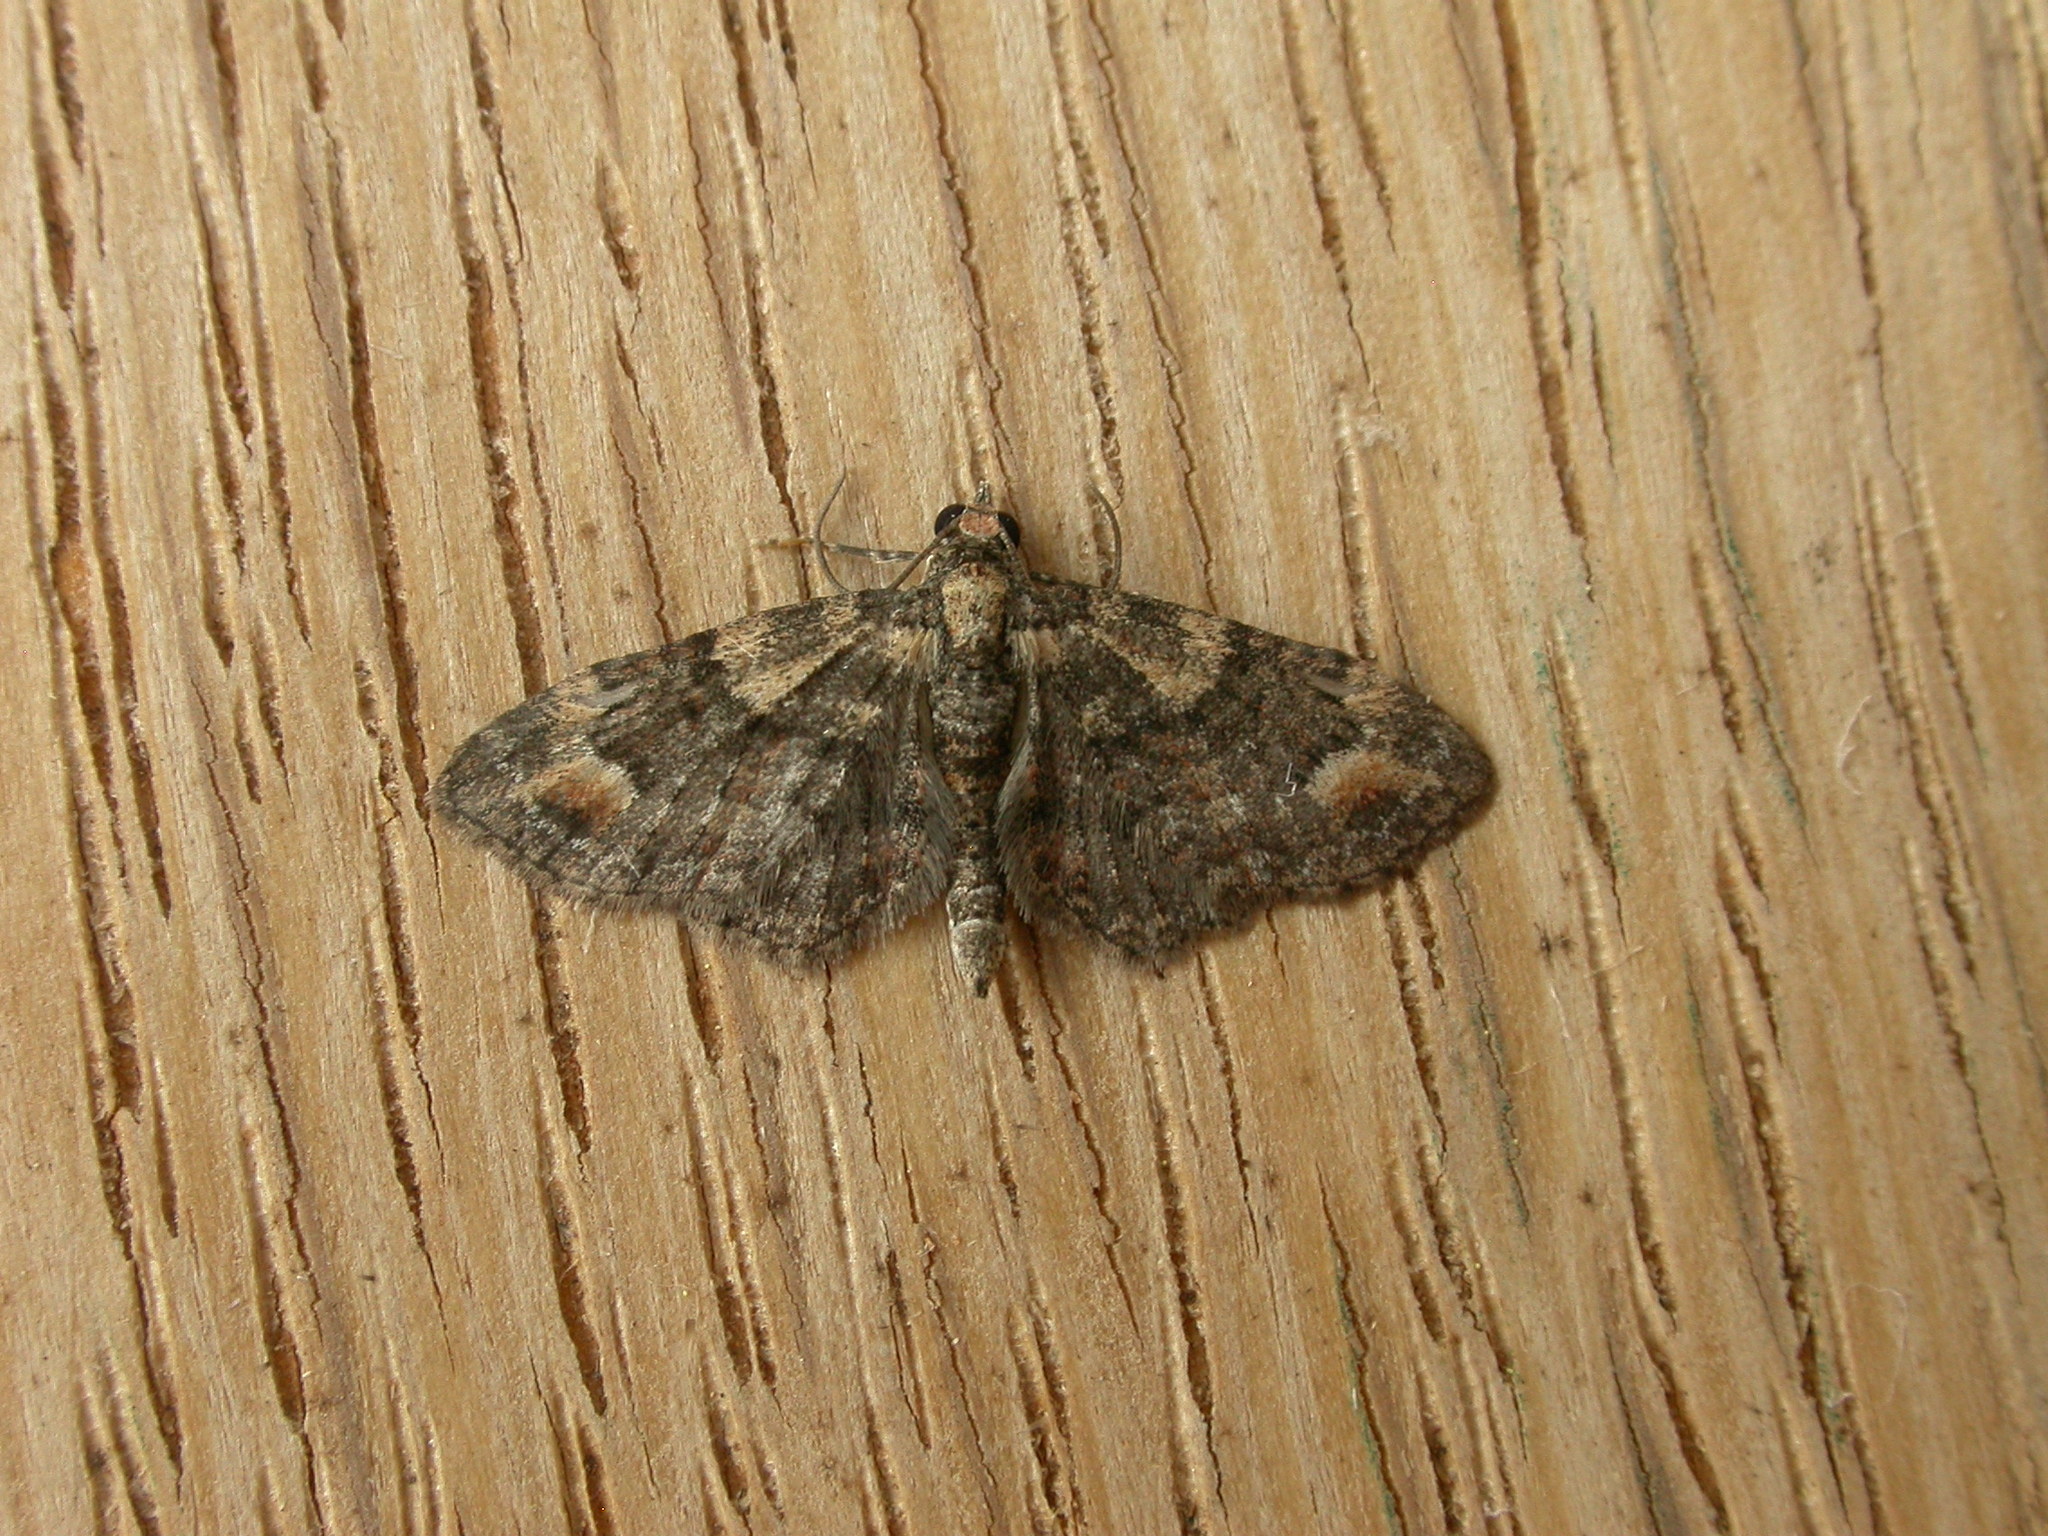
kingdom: Animalia
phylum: Arthropoda
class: Insecta
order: Lepidoptera
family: Geometridae
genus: Chloroclystis
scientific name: Chloroclystis pallidiplaga
